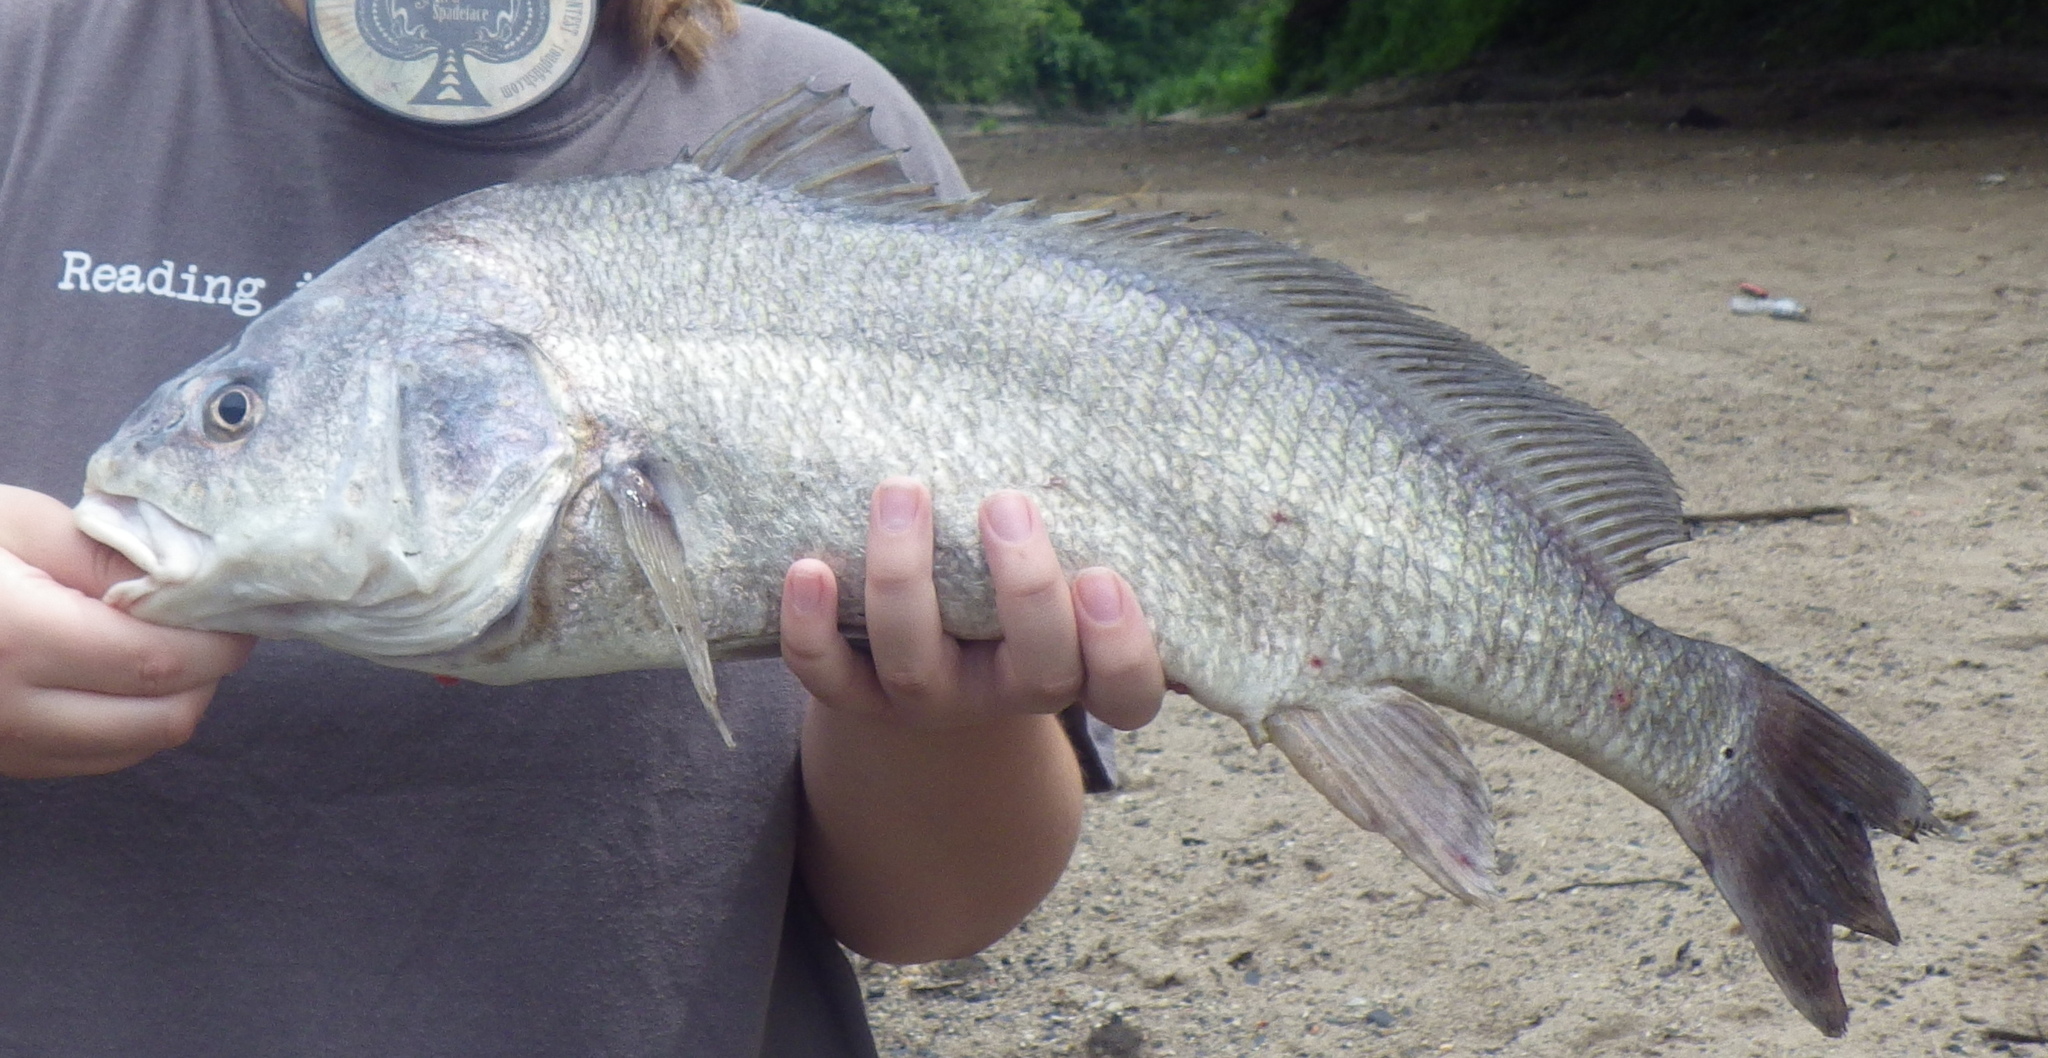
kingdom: Animalia
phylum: Chordata
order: Perciformes
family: Sciaenidae
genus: Aplodinotus
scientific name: Aplodinotus grunniens
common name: Freshwater drum
